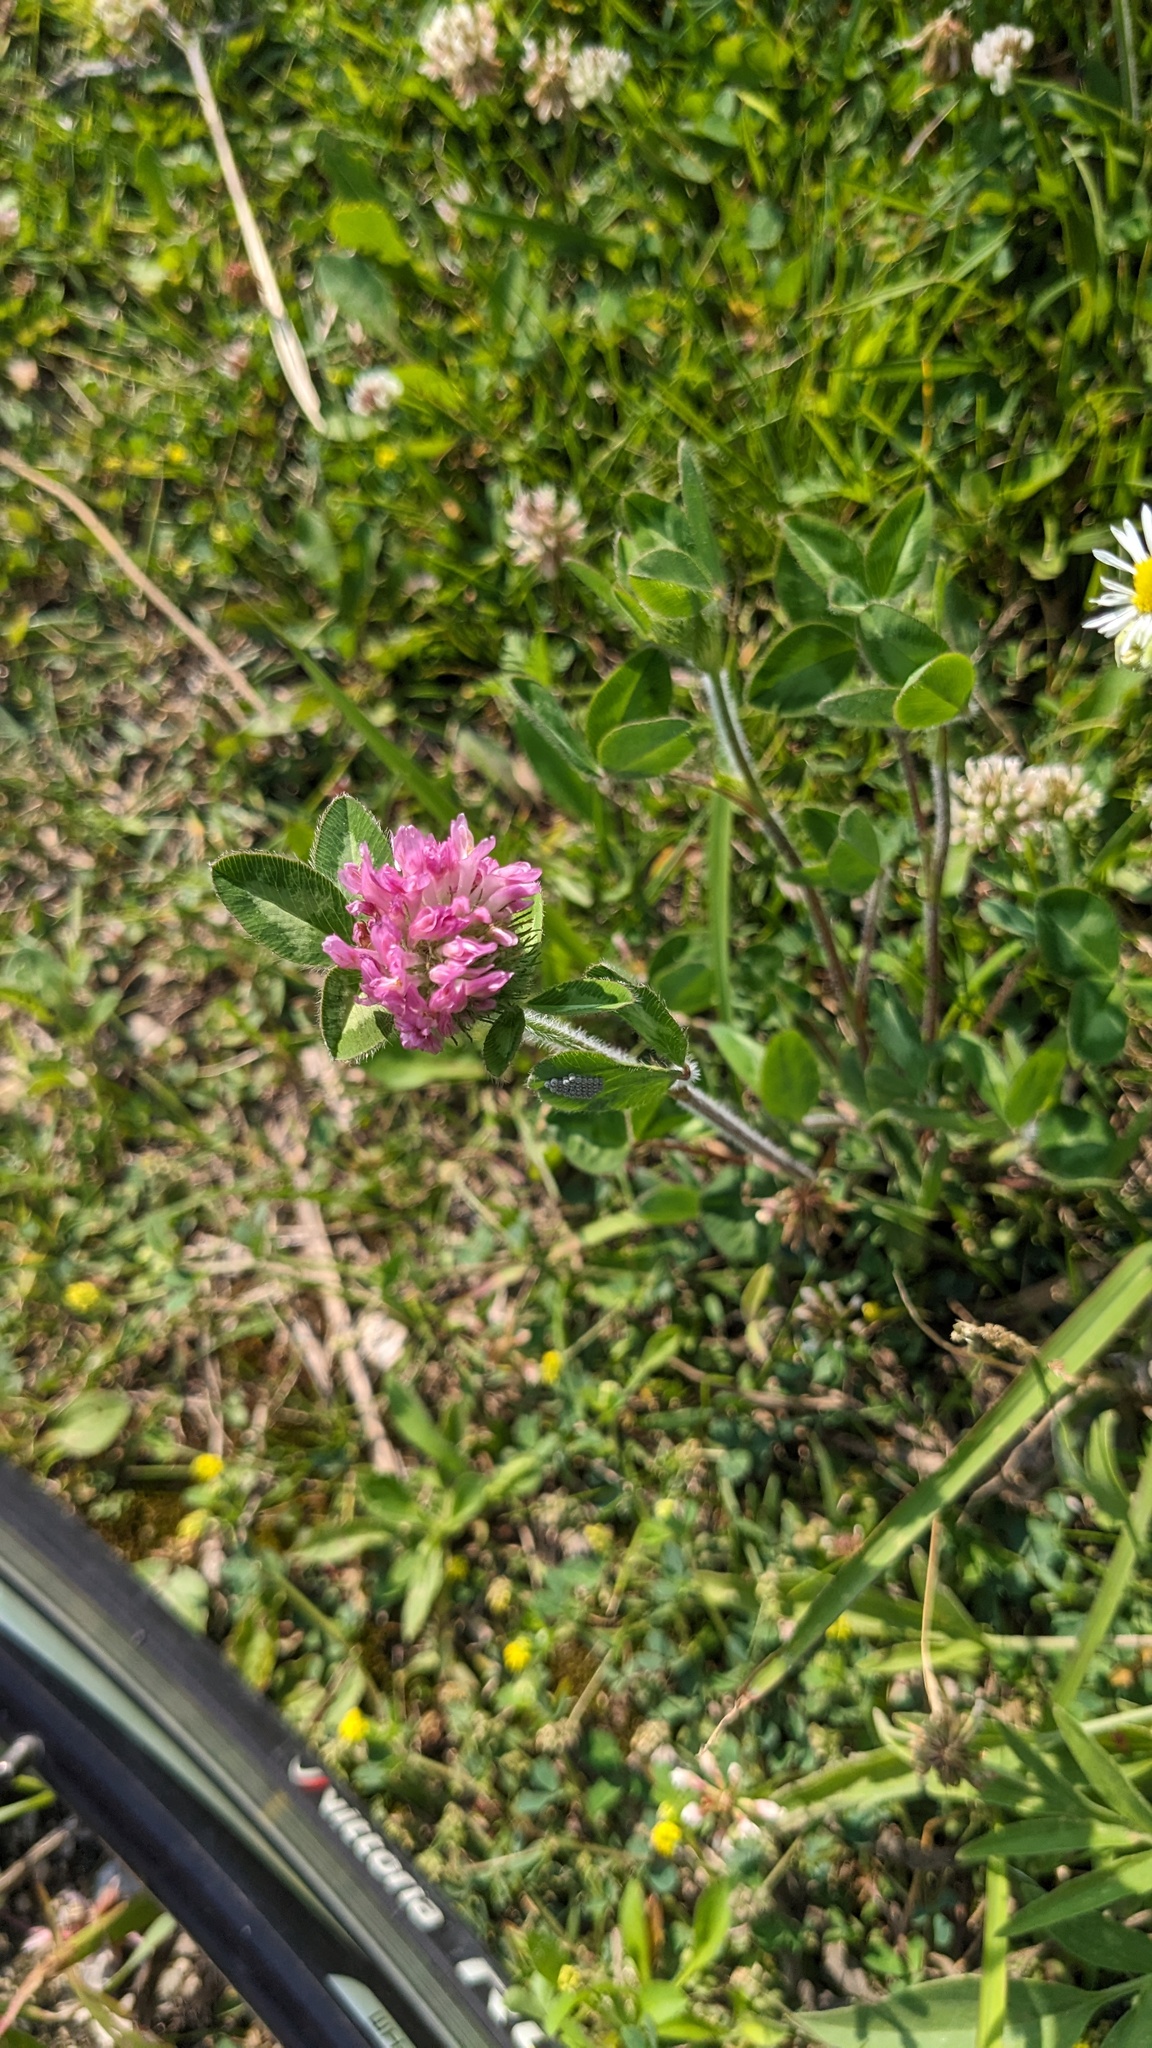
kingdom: Plantae
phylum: Tracheophyta
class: Magnoliopsida
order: Fabales
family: Fabaceae
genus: Trifolium
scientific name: Trifolium pratense
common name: Red clover
